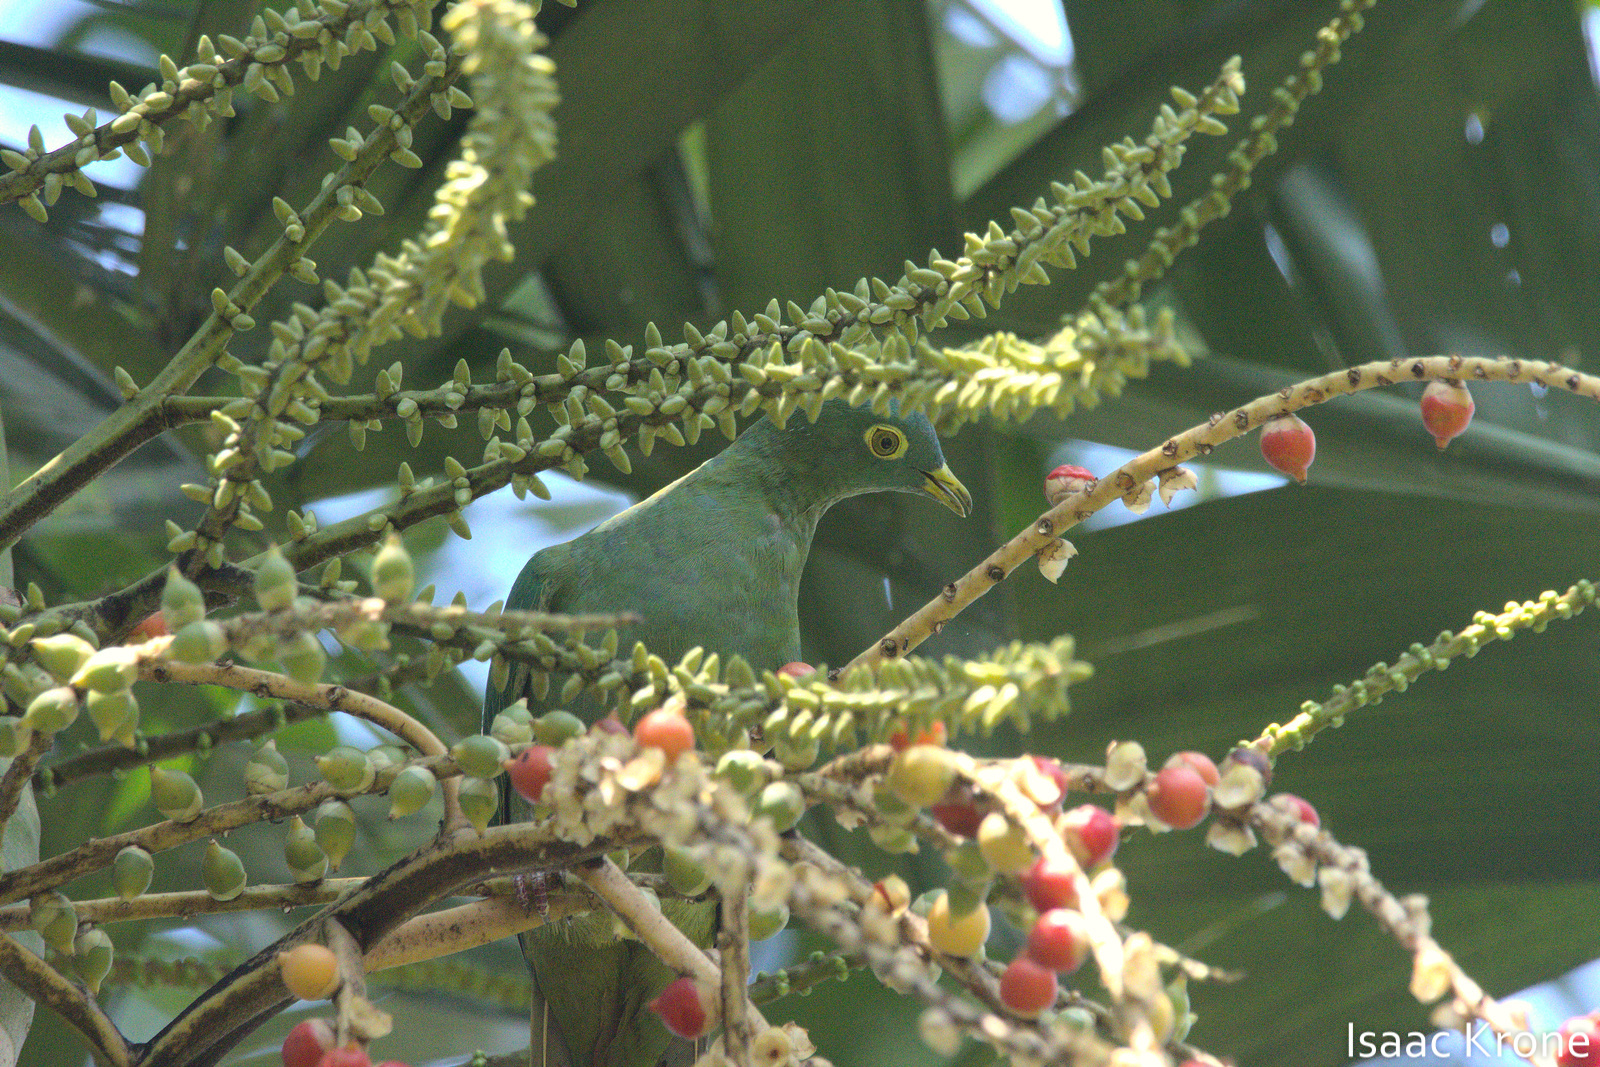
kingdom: Animalia
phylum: Chordata
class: Aves
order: Columbiformes
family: Columbidae
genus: Ptilinopus
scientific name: Ptilinopus melanospilus
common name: Black-naped fruit dove
